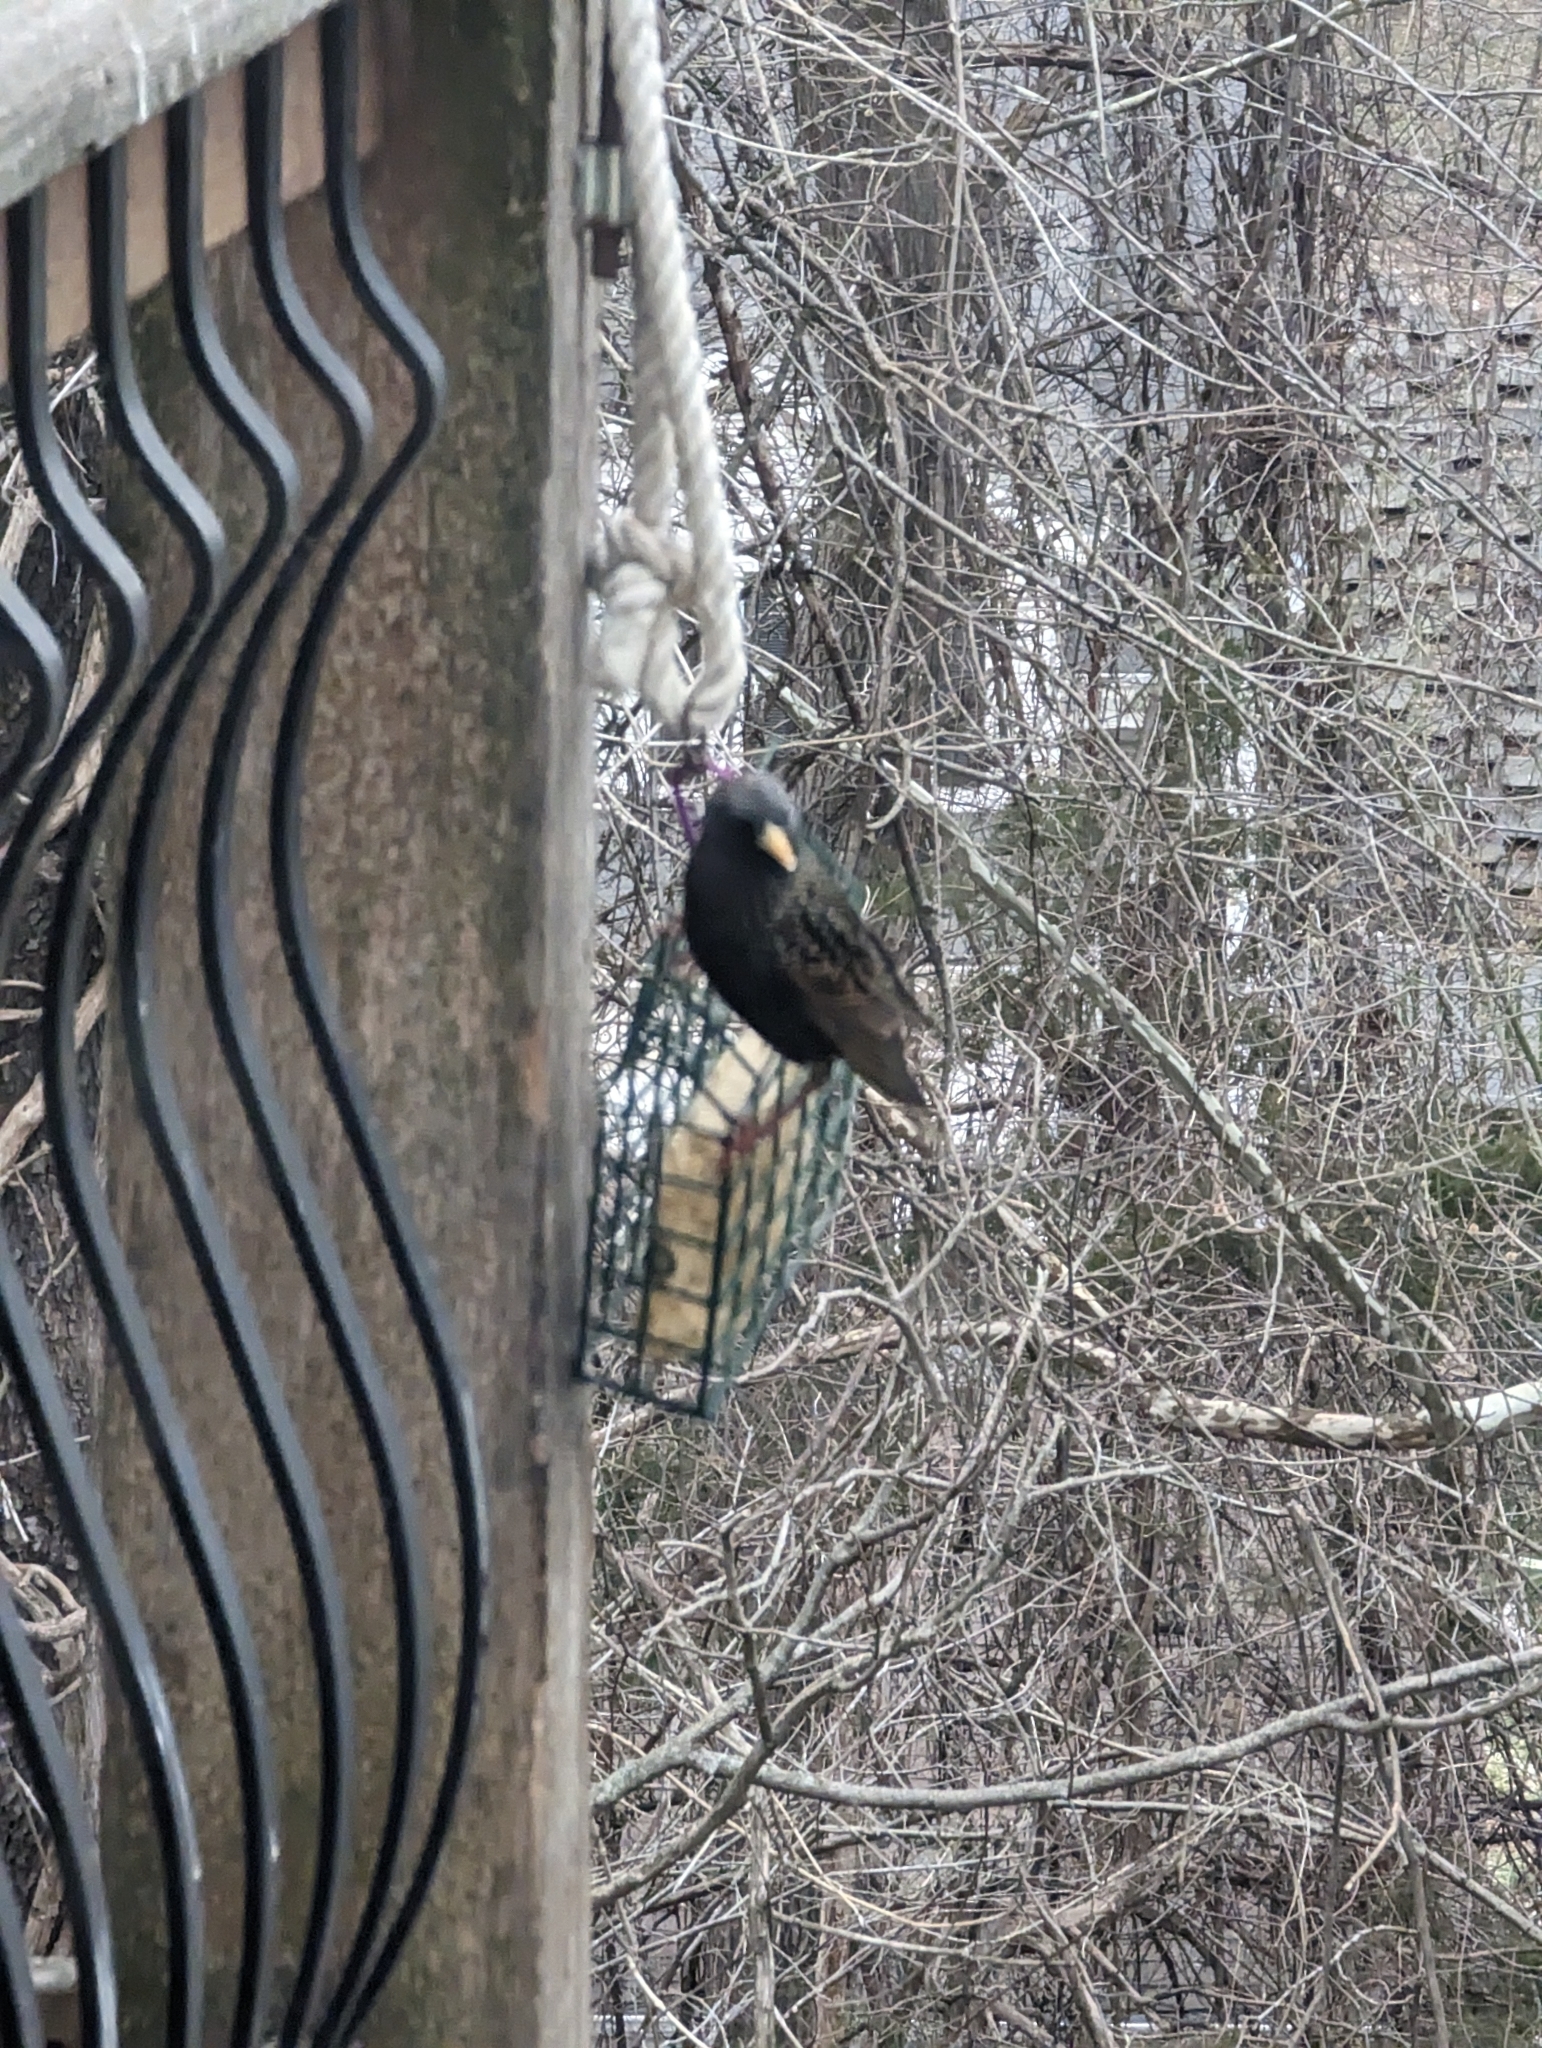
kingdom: Animalia
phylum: Chordata
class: Aves
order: Passeriformes
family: Sturnidae
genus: Sturnus
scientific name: Sturnus vulgaris
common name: Common starling
